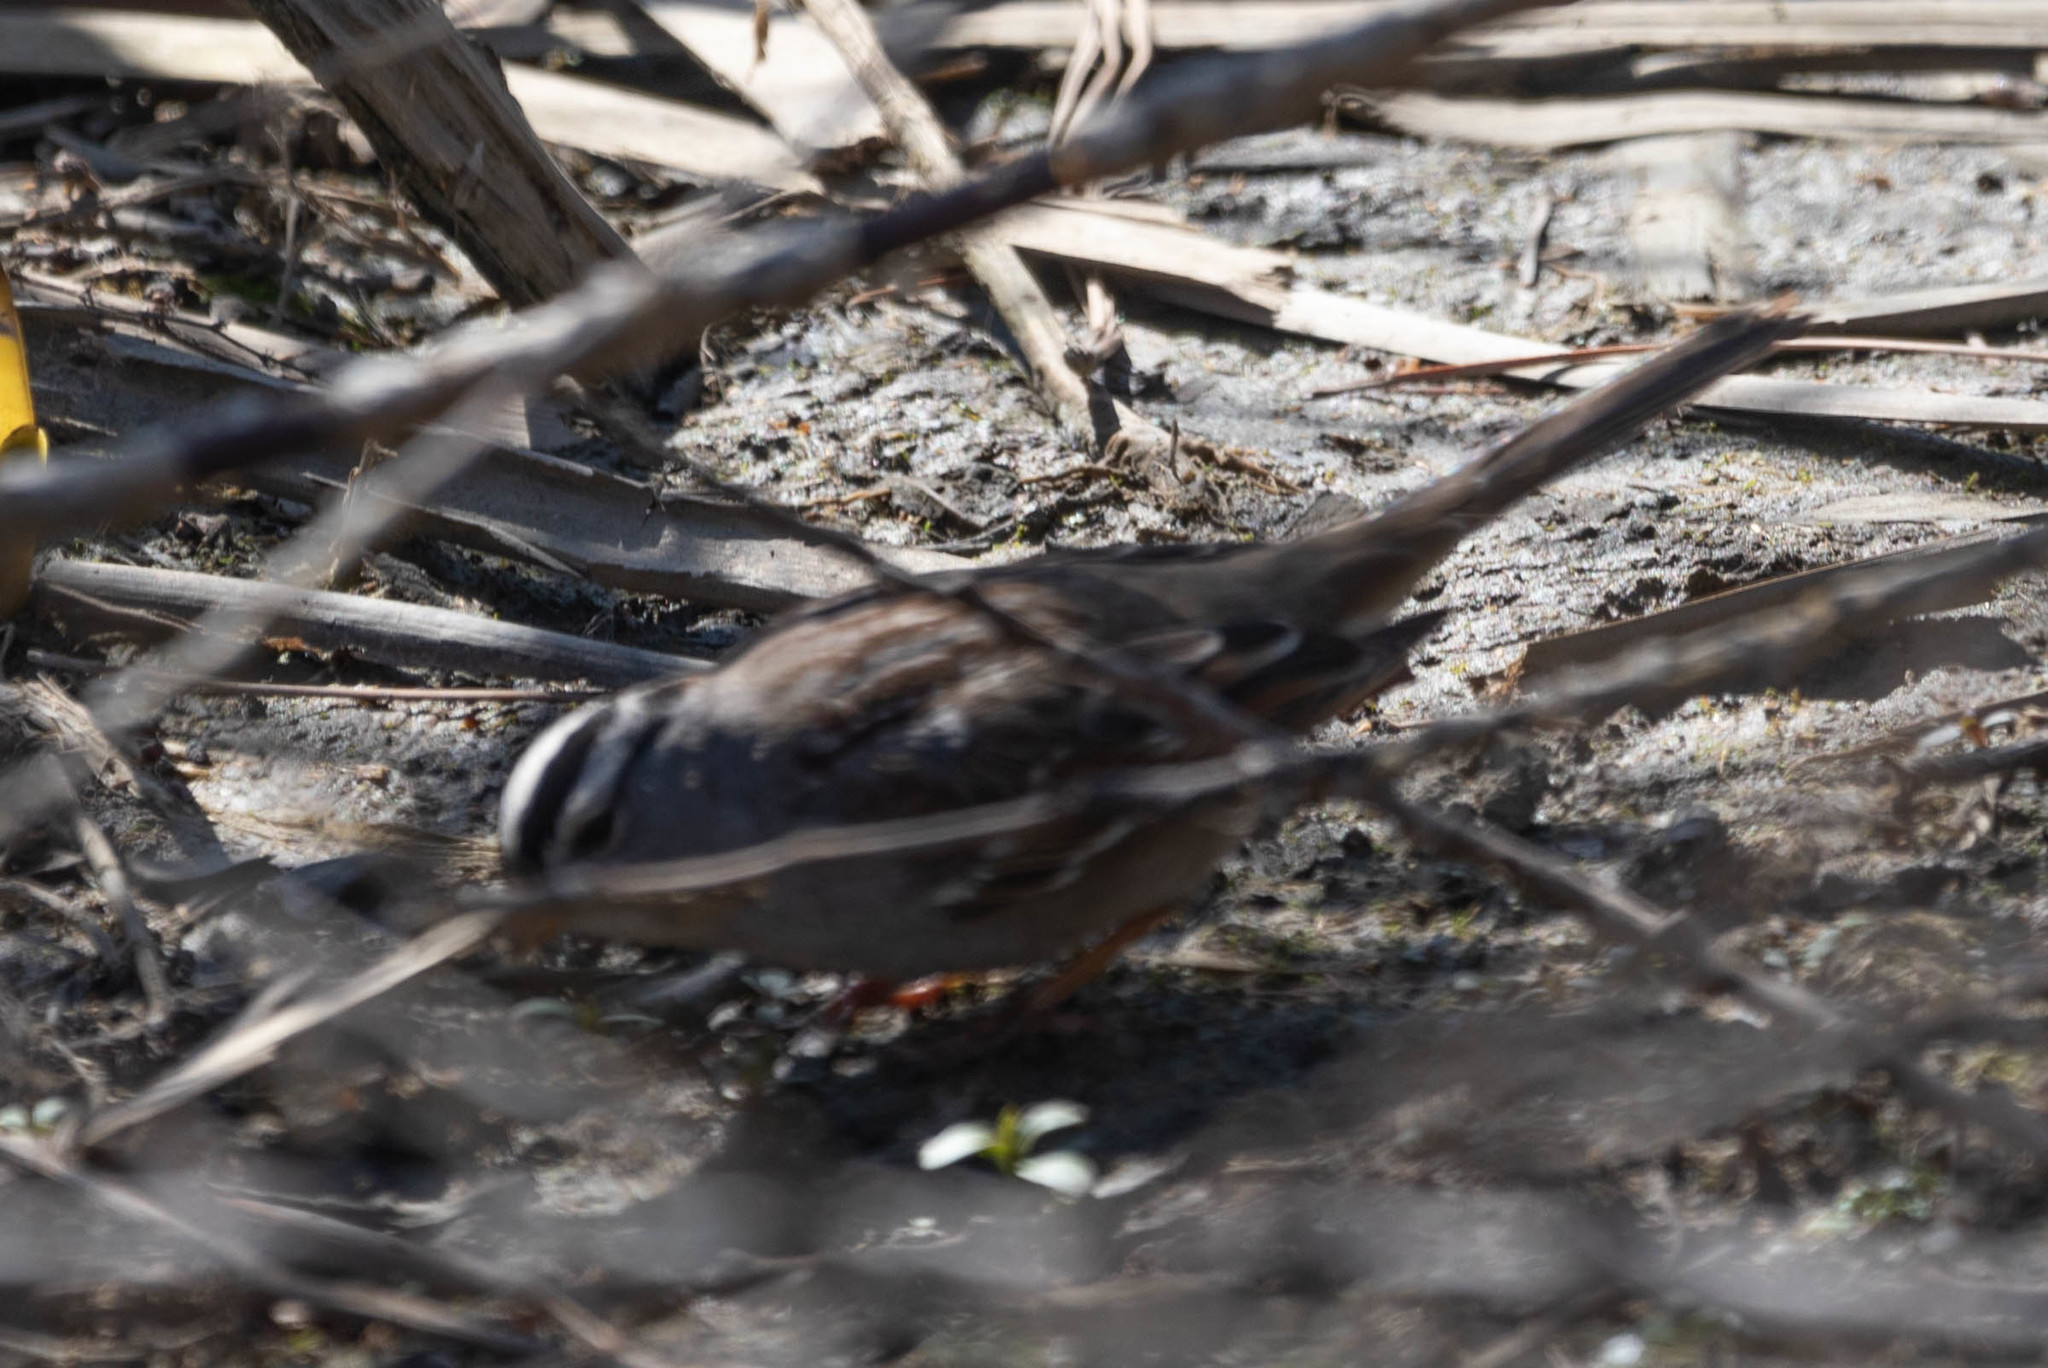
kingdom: Animalia
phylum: Chordata
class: Aves
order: Passeriformes
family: Passerellidae
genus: Zonotrichia
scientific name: Zonotrichia leucophrys
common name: White-crowned sparrow
